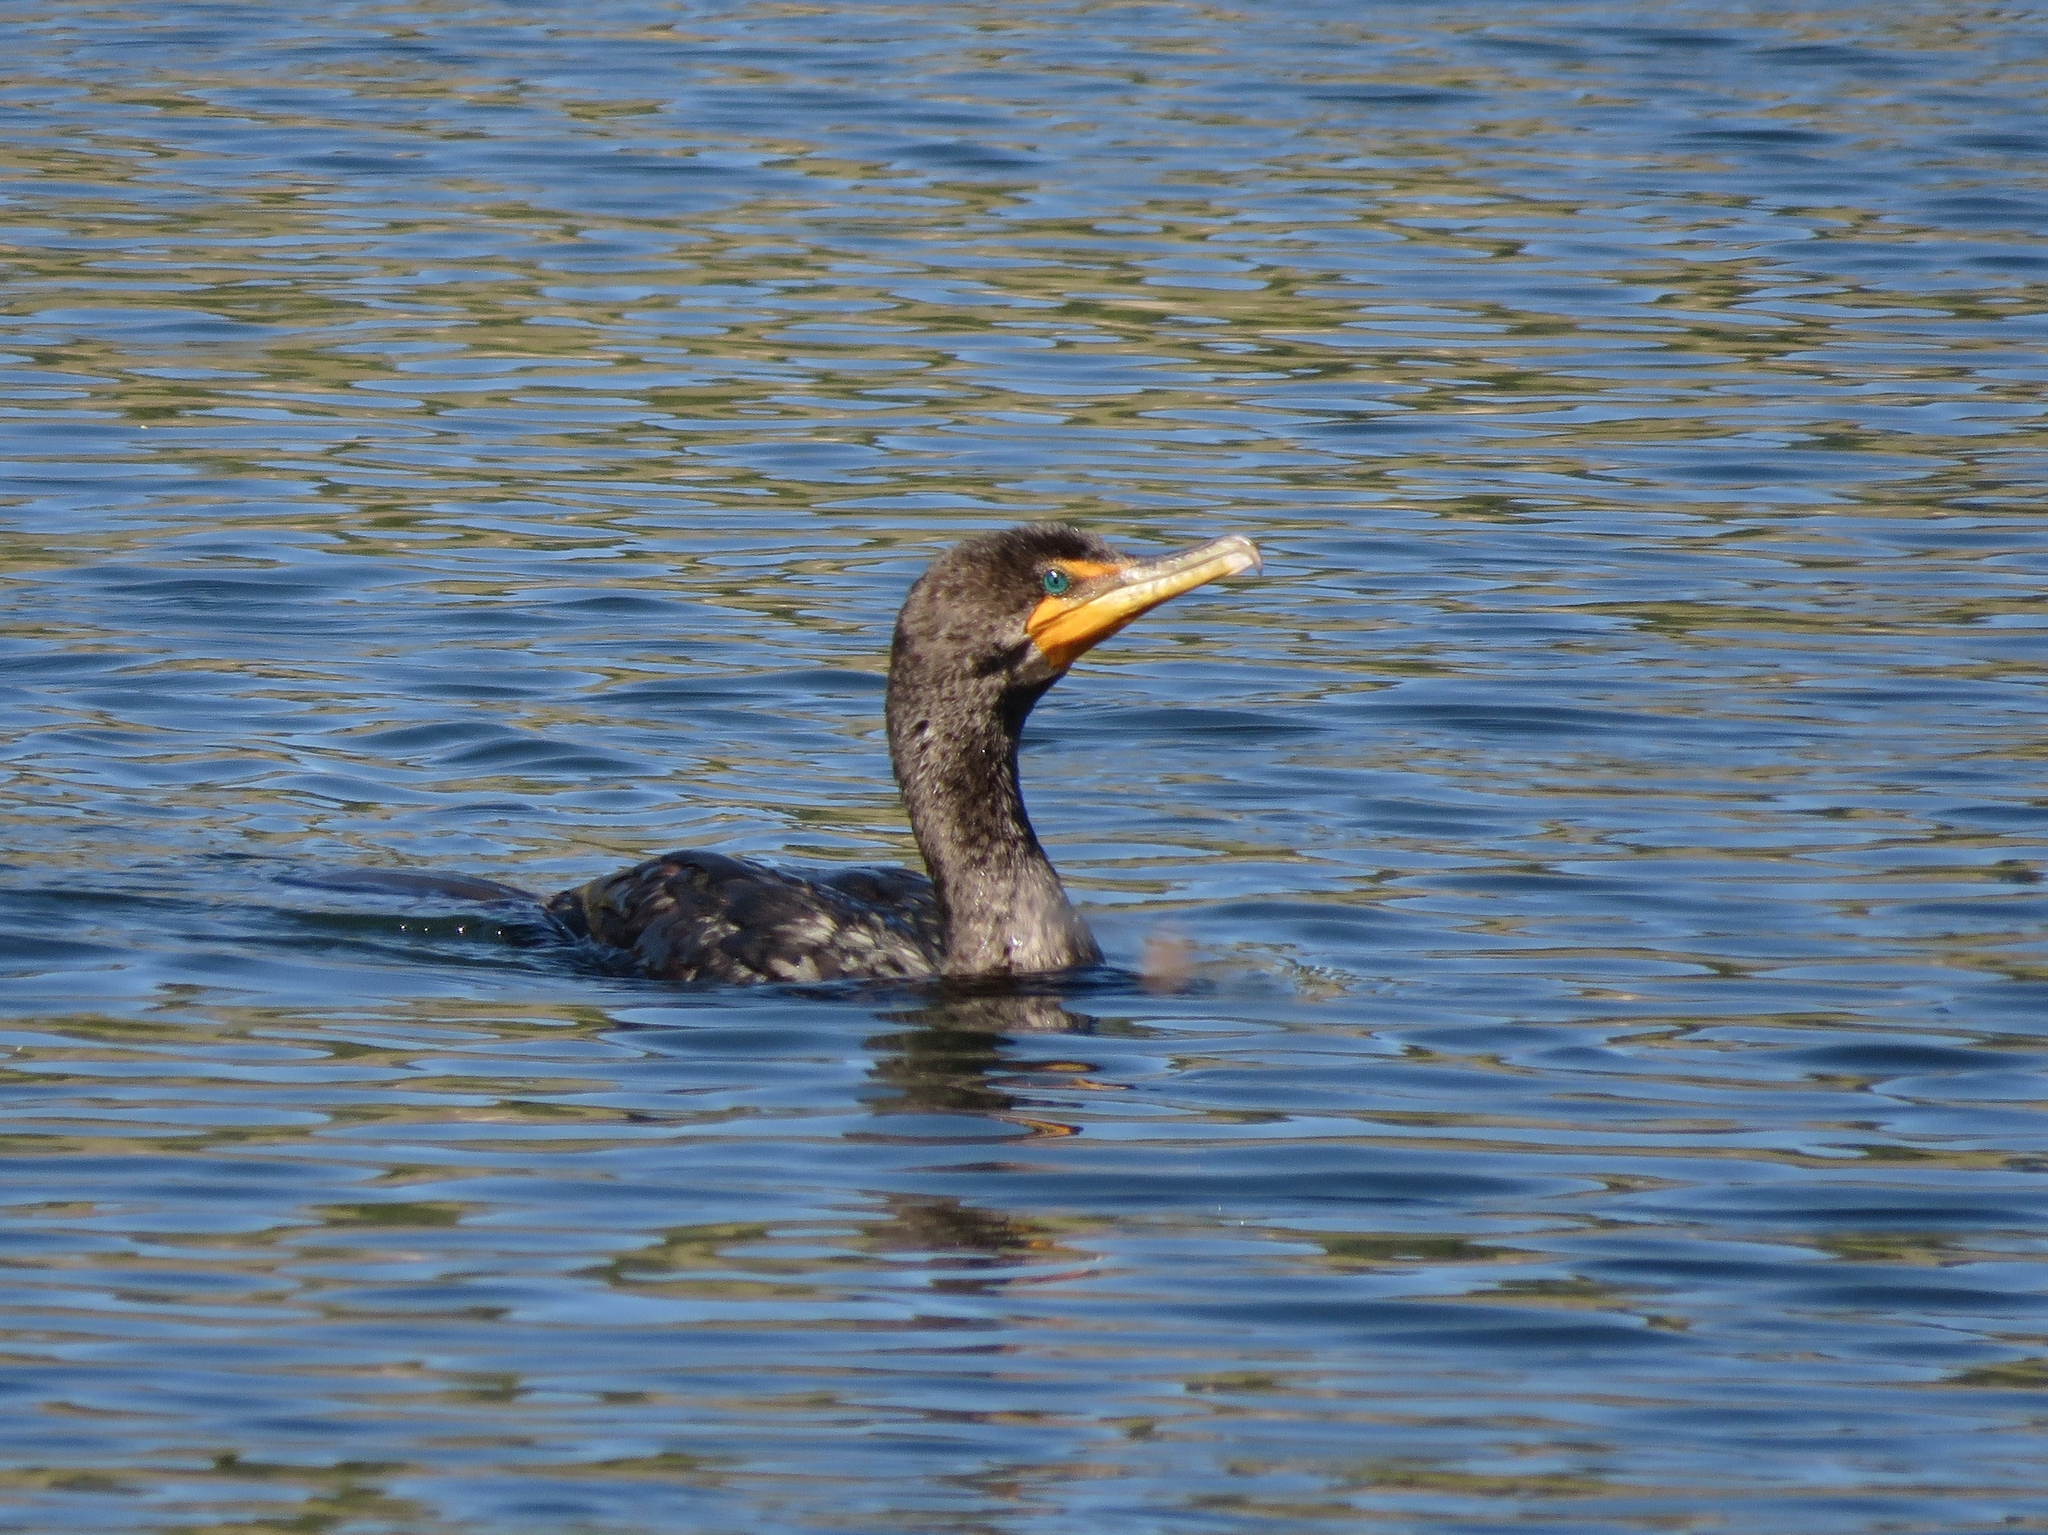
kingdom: Animalia
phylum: Chordata
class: Aves
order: Suliformes
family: Phalacrocoracidae
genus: Phalacrocorax
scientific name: Phalacrocorax auritus
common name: Double-crested cormorant
